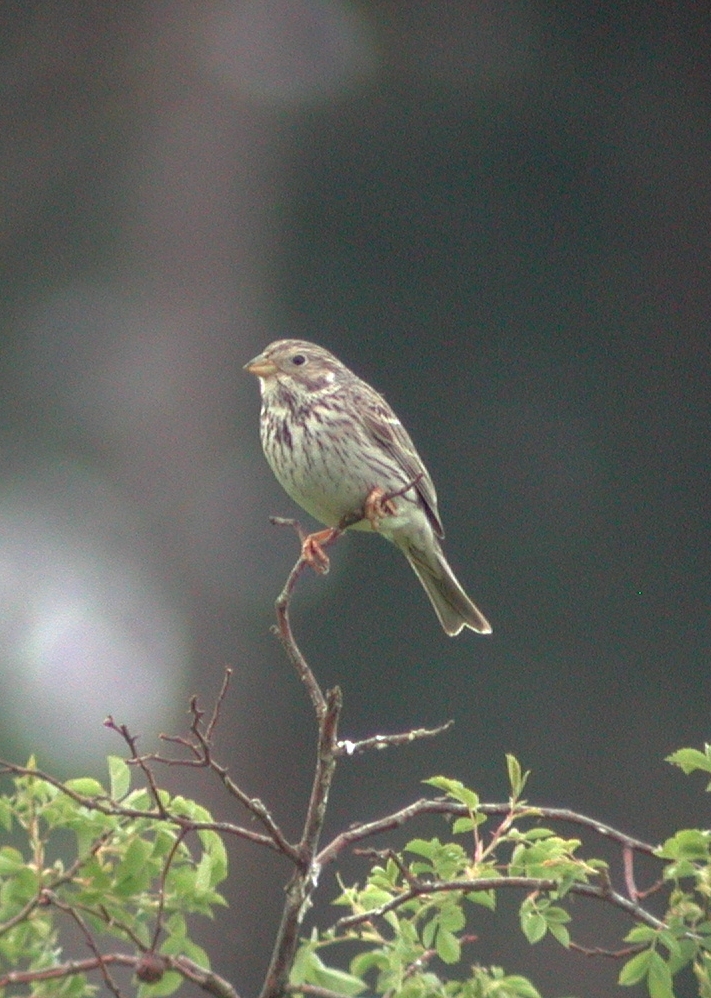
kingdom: Animalia
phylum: Chordata
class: Aves
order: Passeriformes
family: Emberizidae
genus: Emberiza
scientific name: Emberiza calandra
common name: Corn bunting
